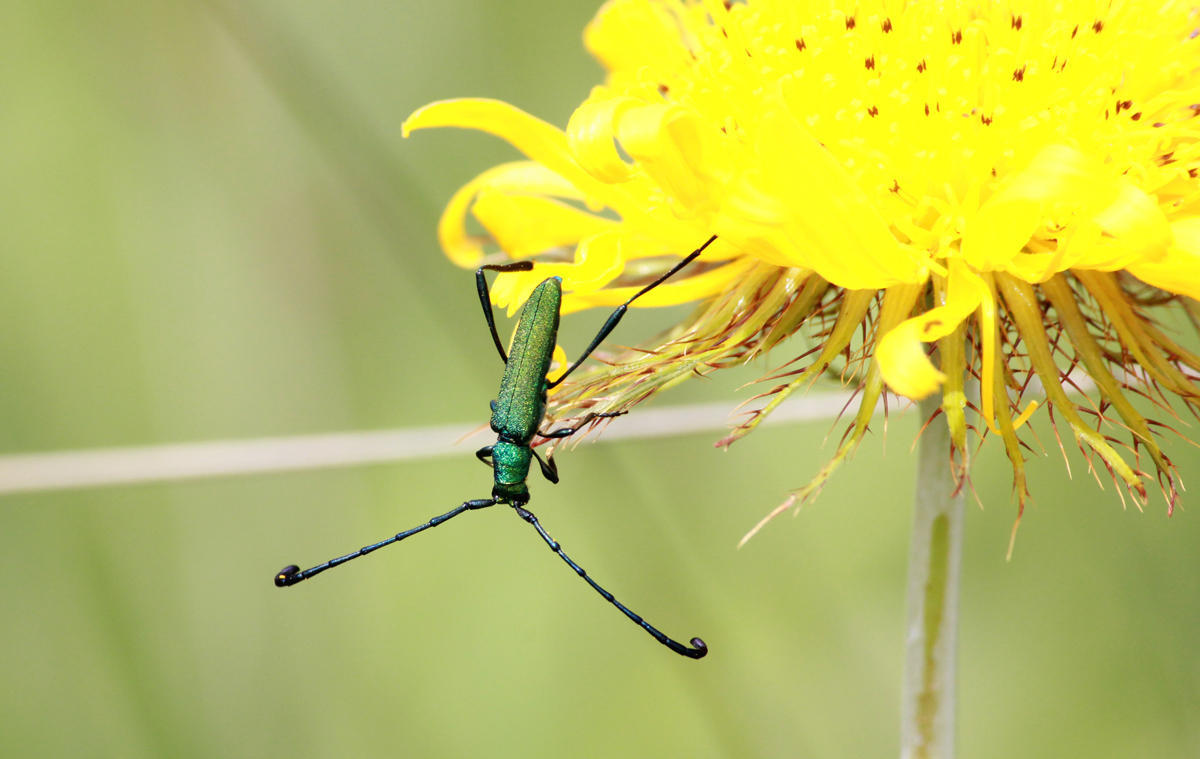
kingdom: Animalia
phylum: Arthropoda
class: Insecta
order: Coleoptera
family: Cerambycidae
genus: Hypocrites
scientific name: Hypocrites
